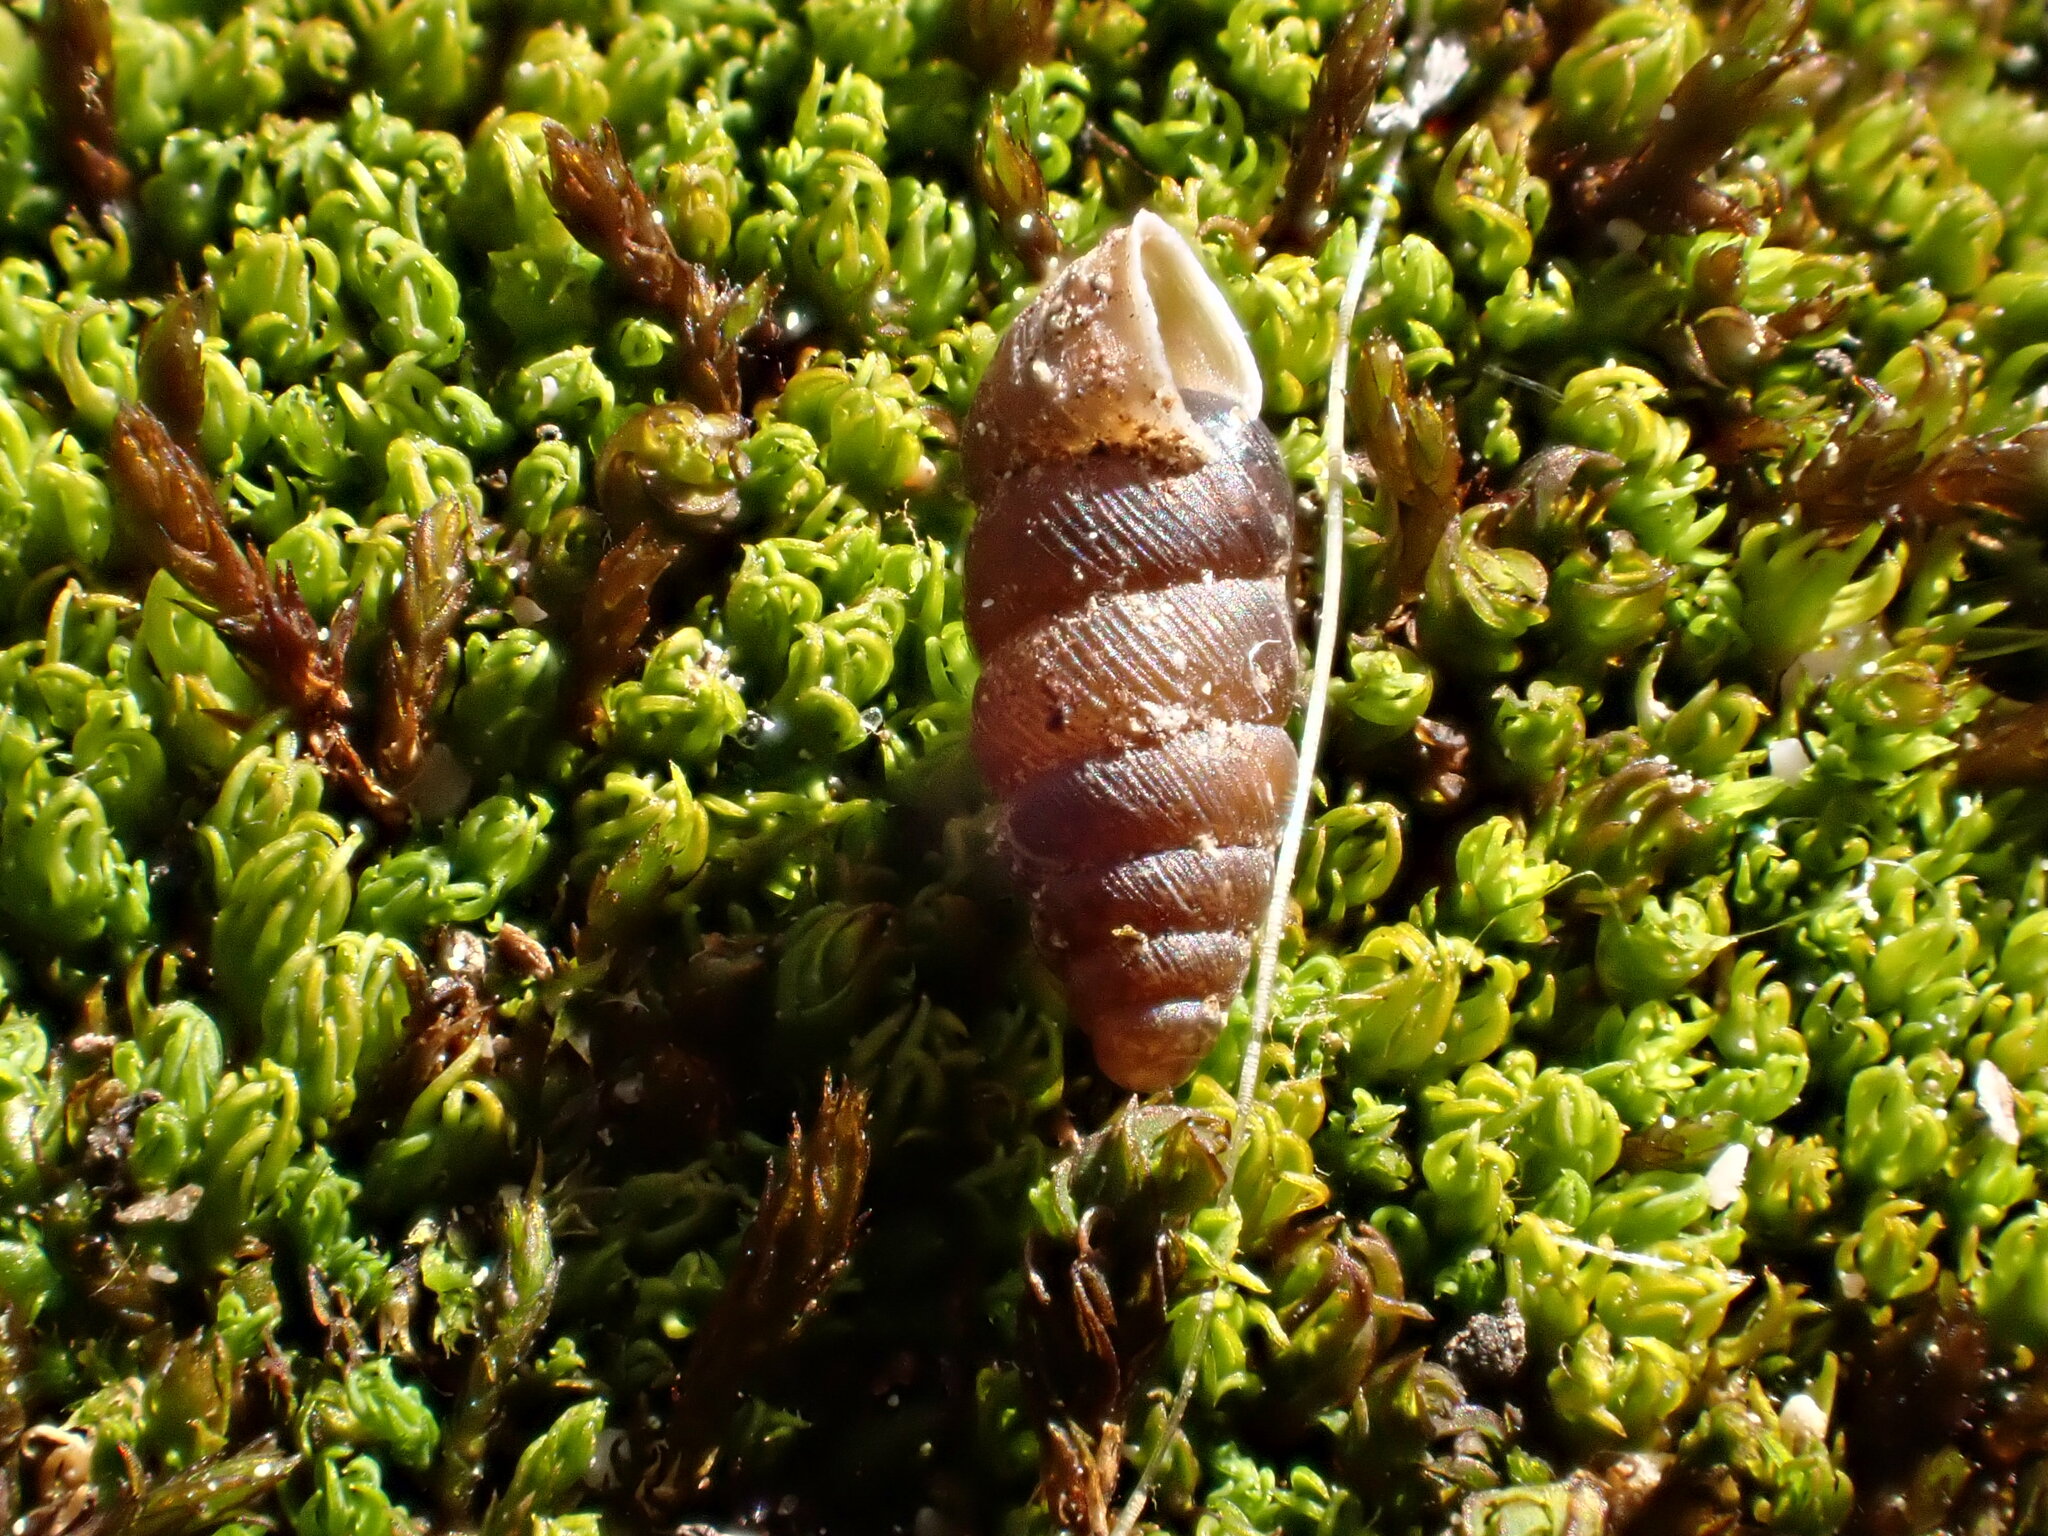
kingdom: Animalia
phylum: Mollusca
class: Gastropoda
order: Stylommatophora
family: Chondrinidae
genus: Granopupa
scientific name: Granopupa granum
